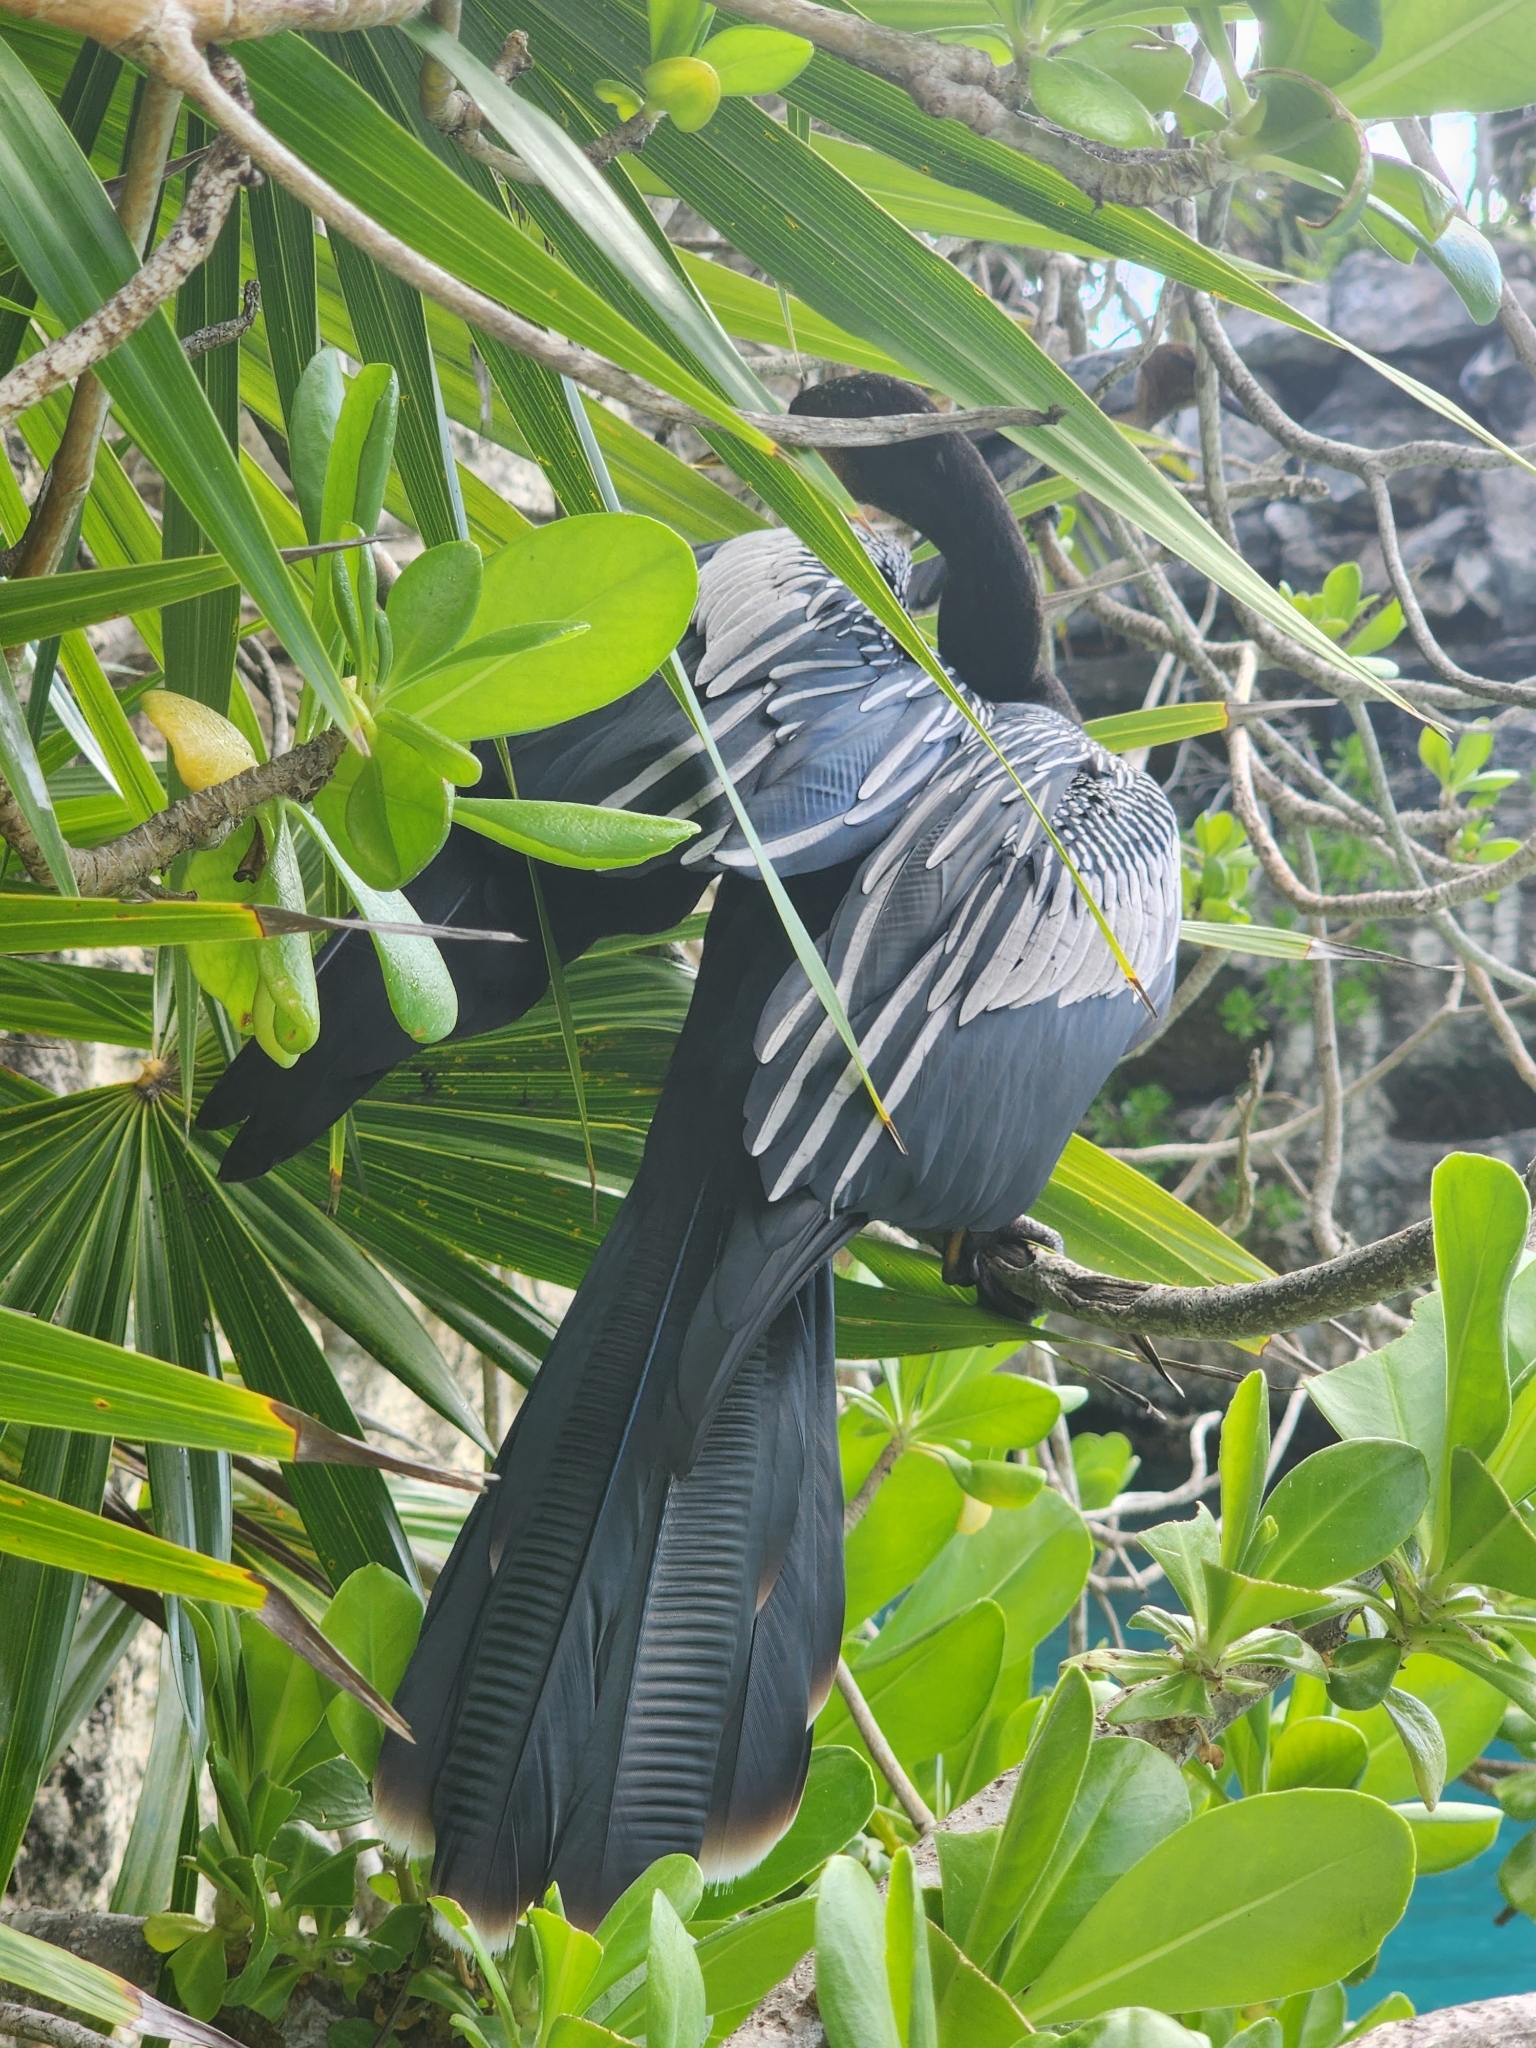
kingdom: Animalia
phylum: Chordata
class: Aves
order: Suliformes
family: Anhingidae
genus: Anhinga
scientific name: Anhinga anhinga
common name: Anhinga
